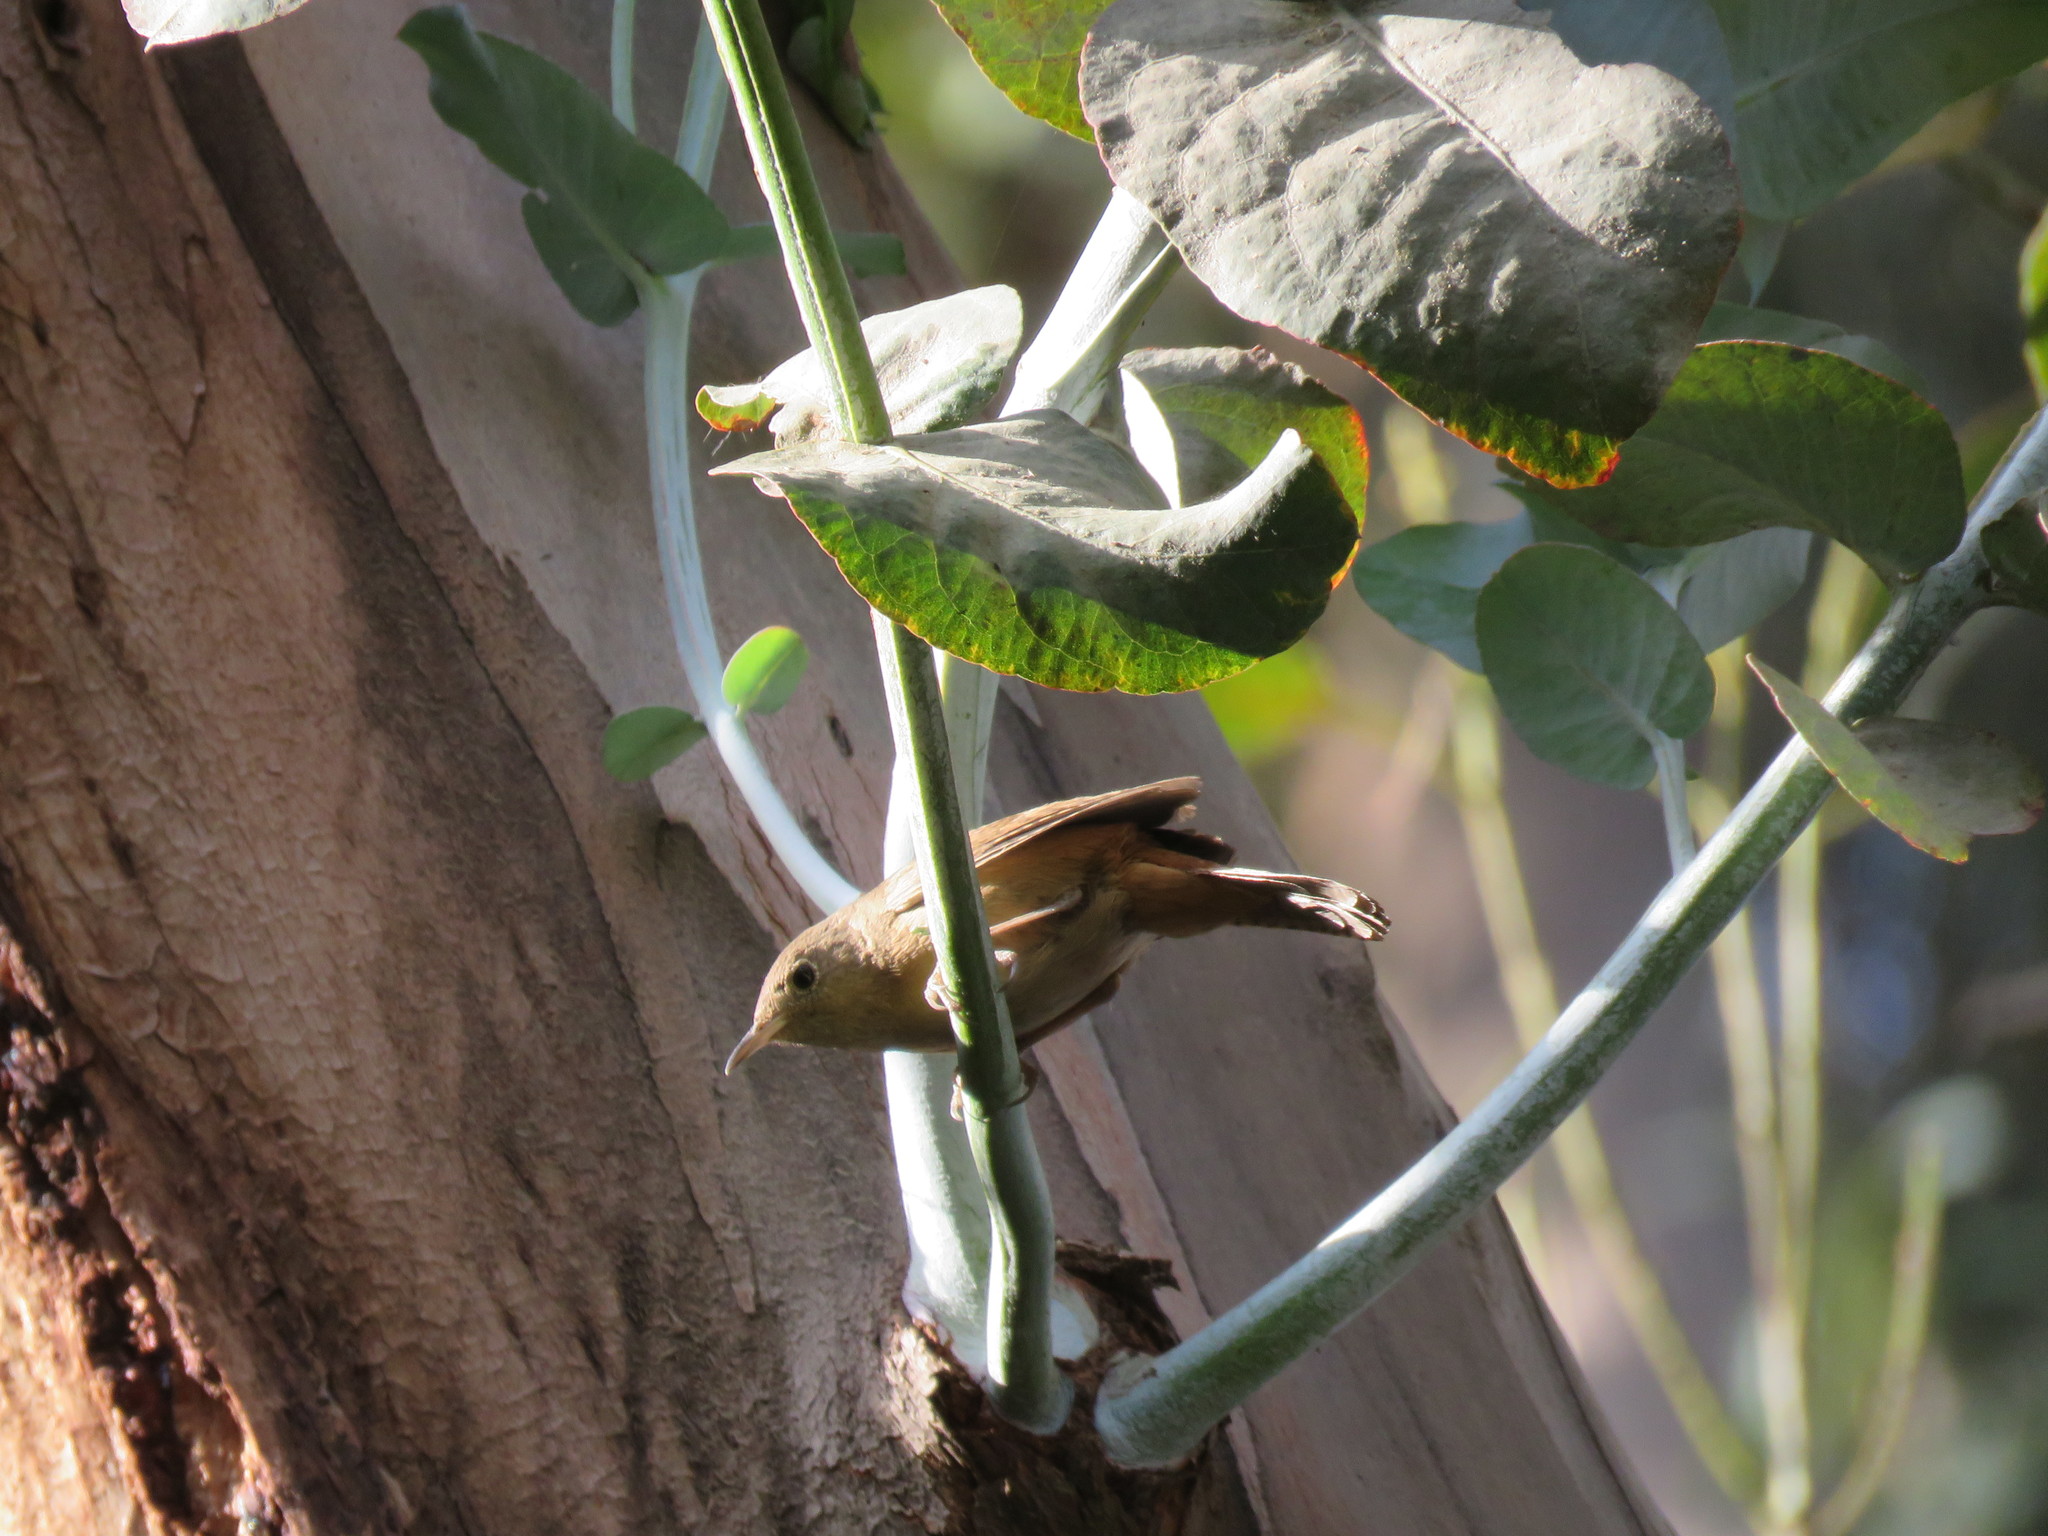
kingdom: Animalia
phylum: Chordata
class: Aves
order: Passeriformes
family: Troglodytidae
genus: Troglodytes
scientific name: Troglodytes aedon
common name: House wren
